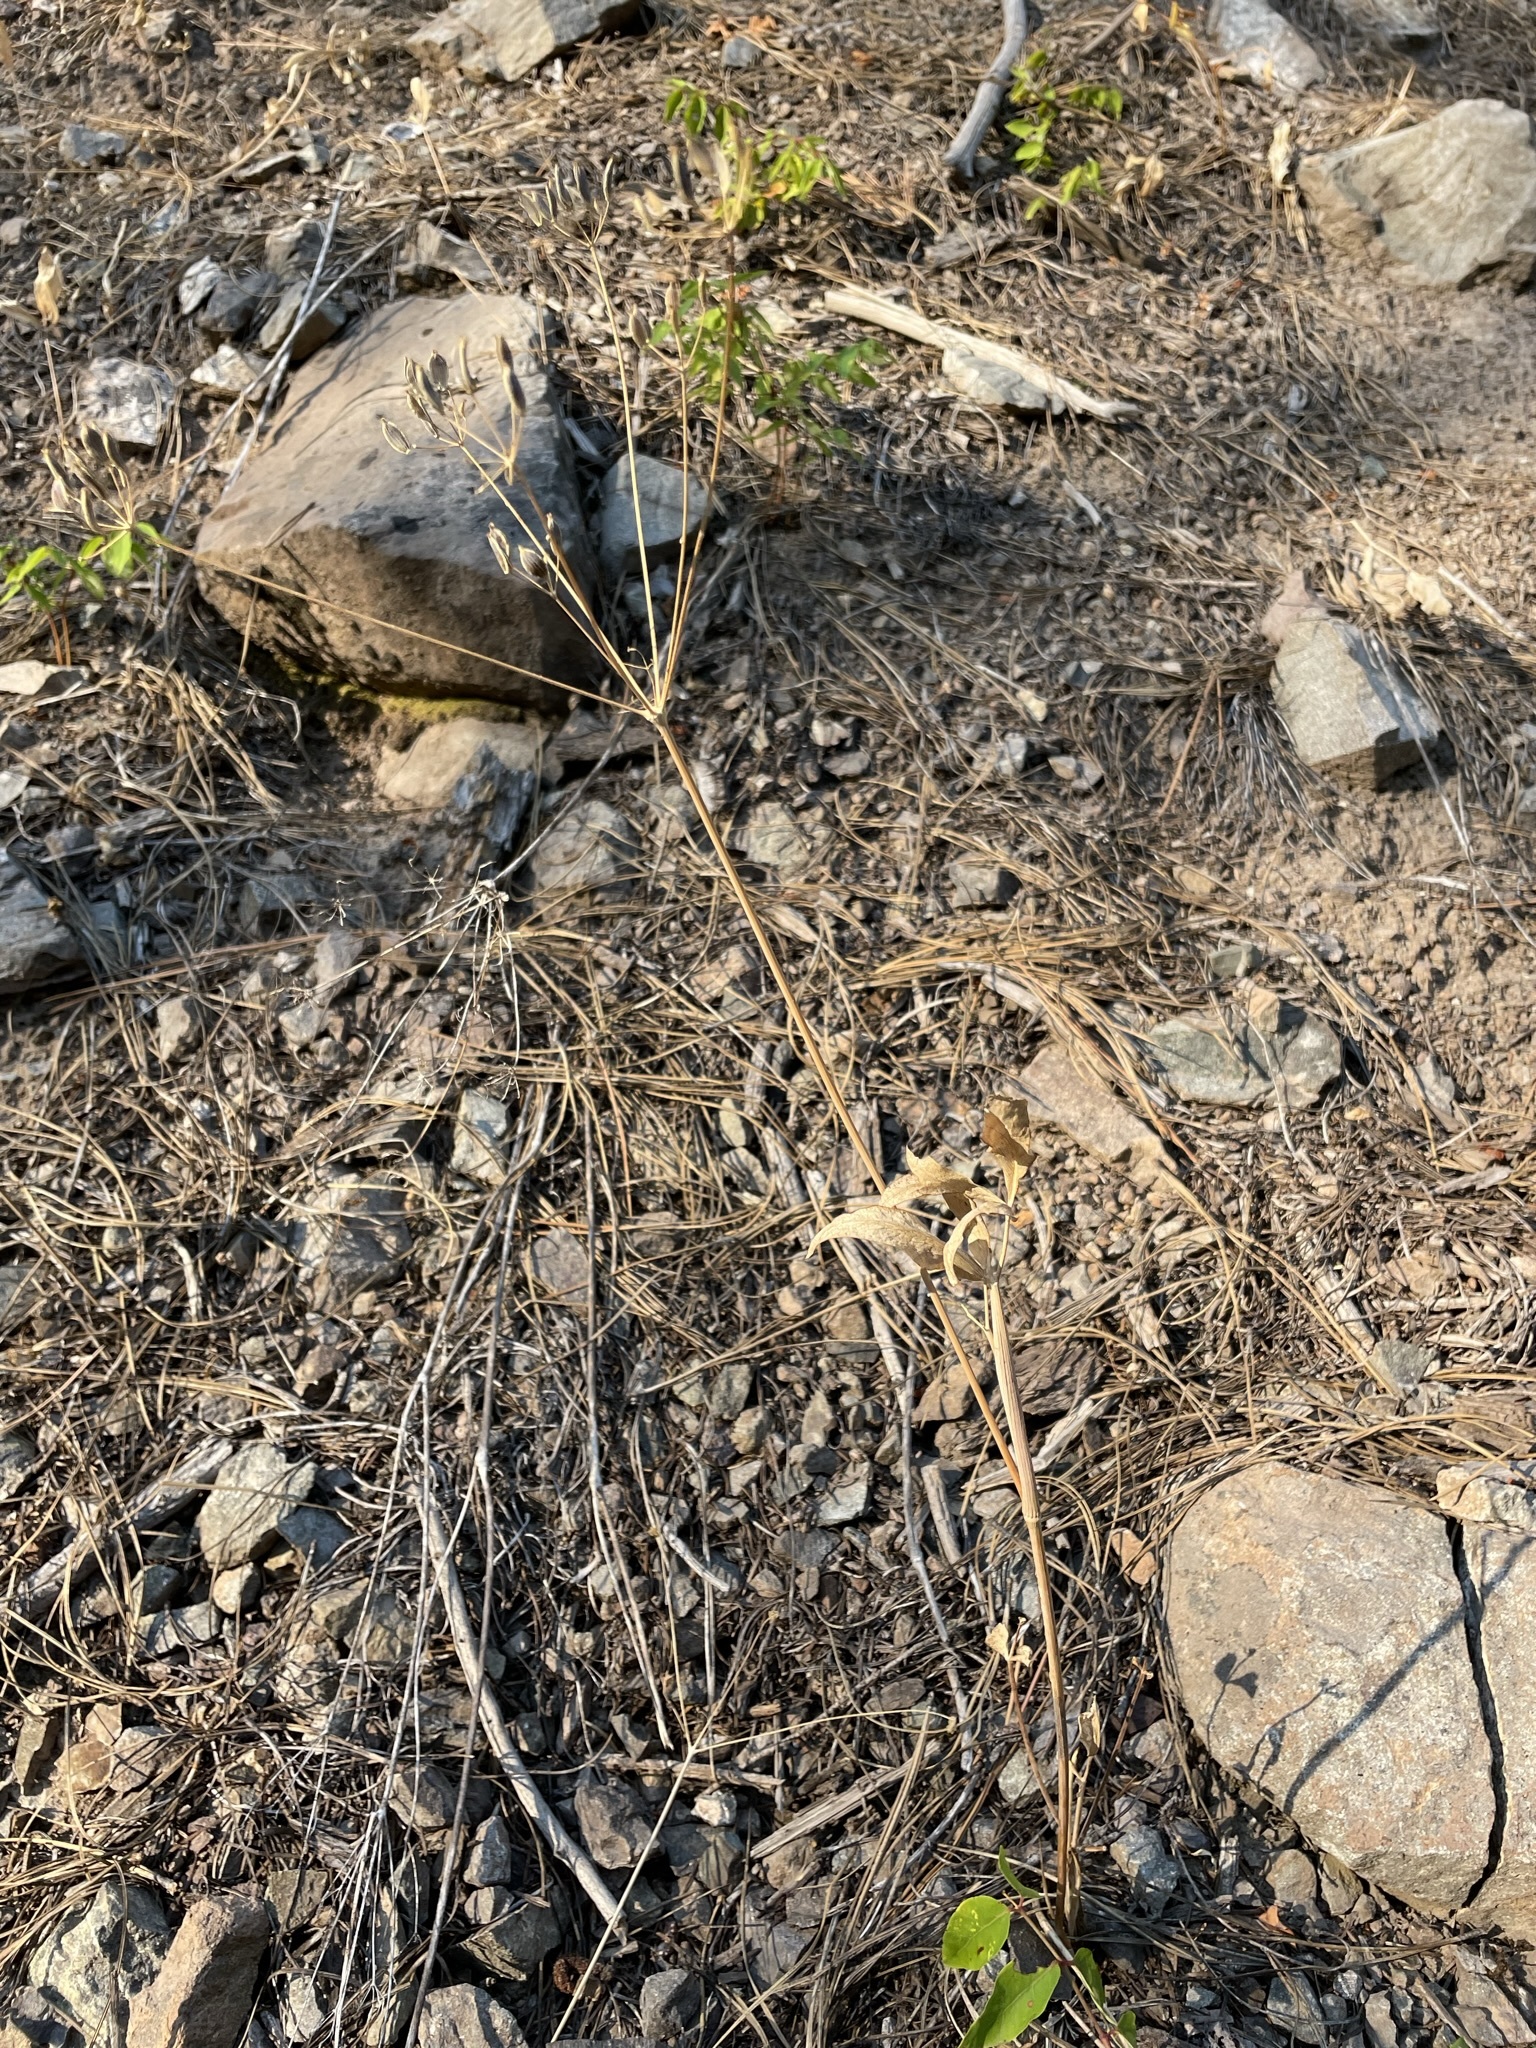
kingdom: Plantae
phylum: Tracheophyta
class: Magnoliopsida
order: Apiales
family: Apiaceae
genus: Lomatium
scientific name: Lomatium nudicaule
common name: Pestle lomatium
